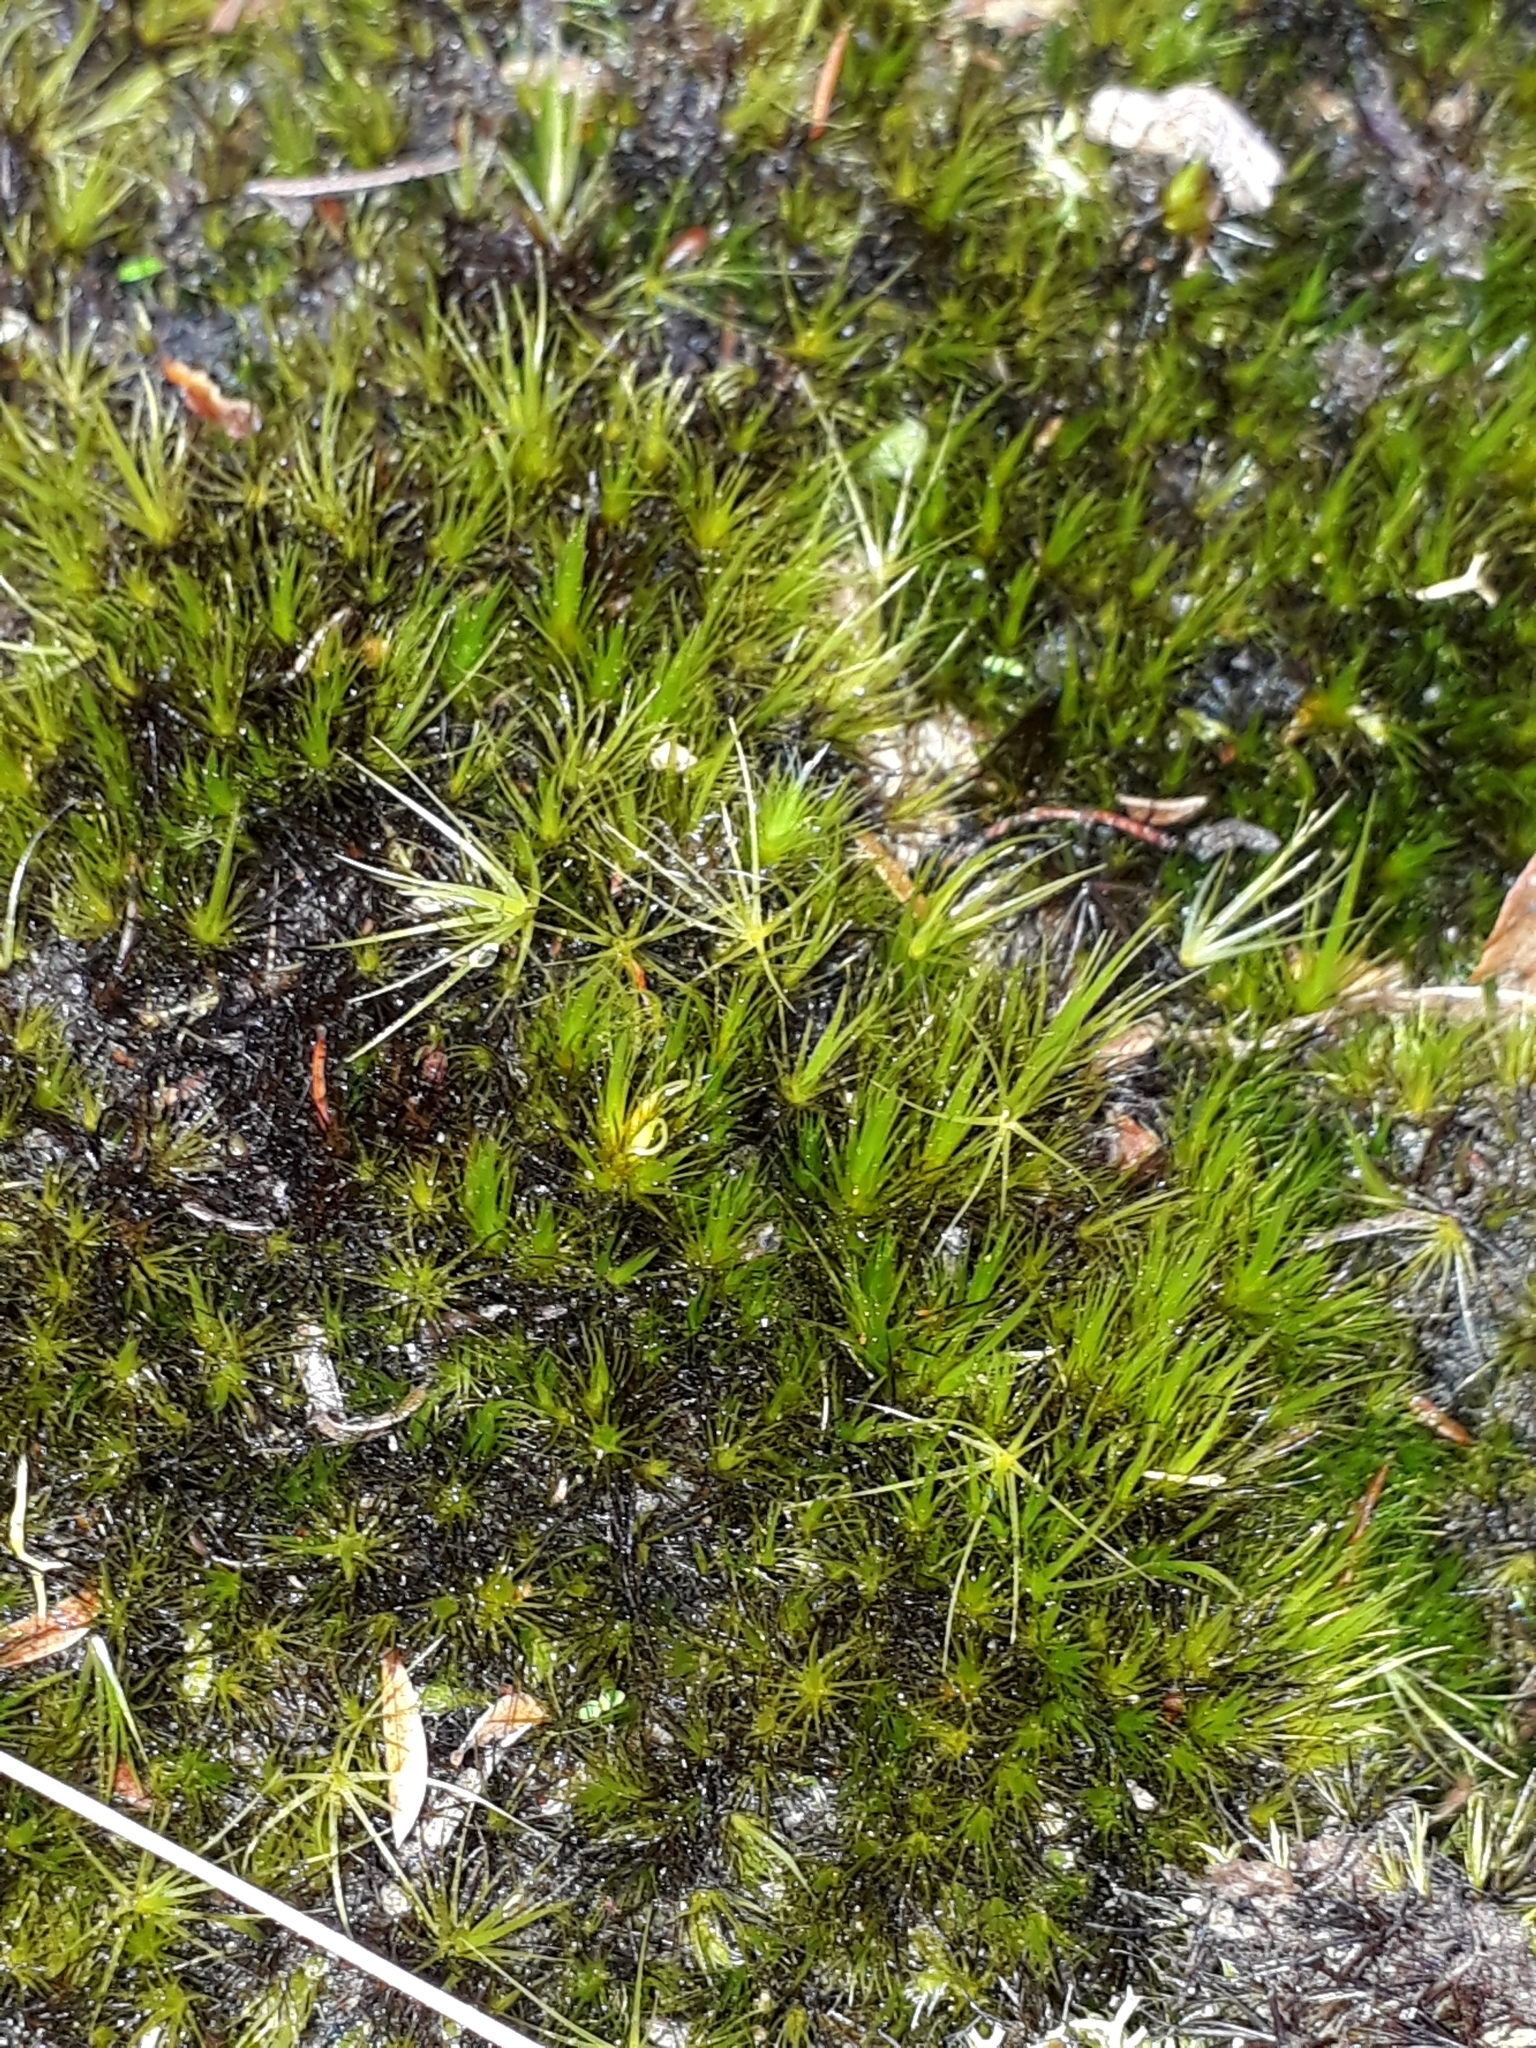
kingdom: Plantae
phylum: Bryophyta
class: Bryopsida
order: Dicranales
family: Leucobryaceae
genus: Campylopus
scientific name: Campylopus clavatus
